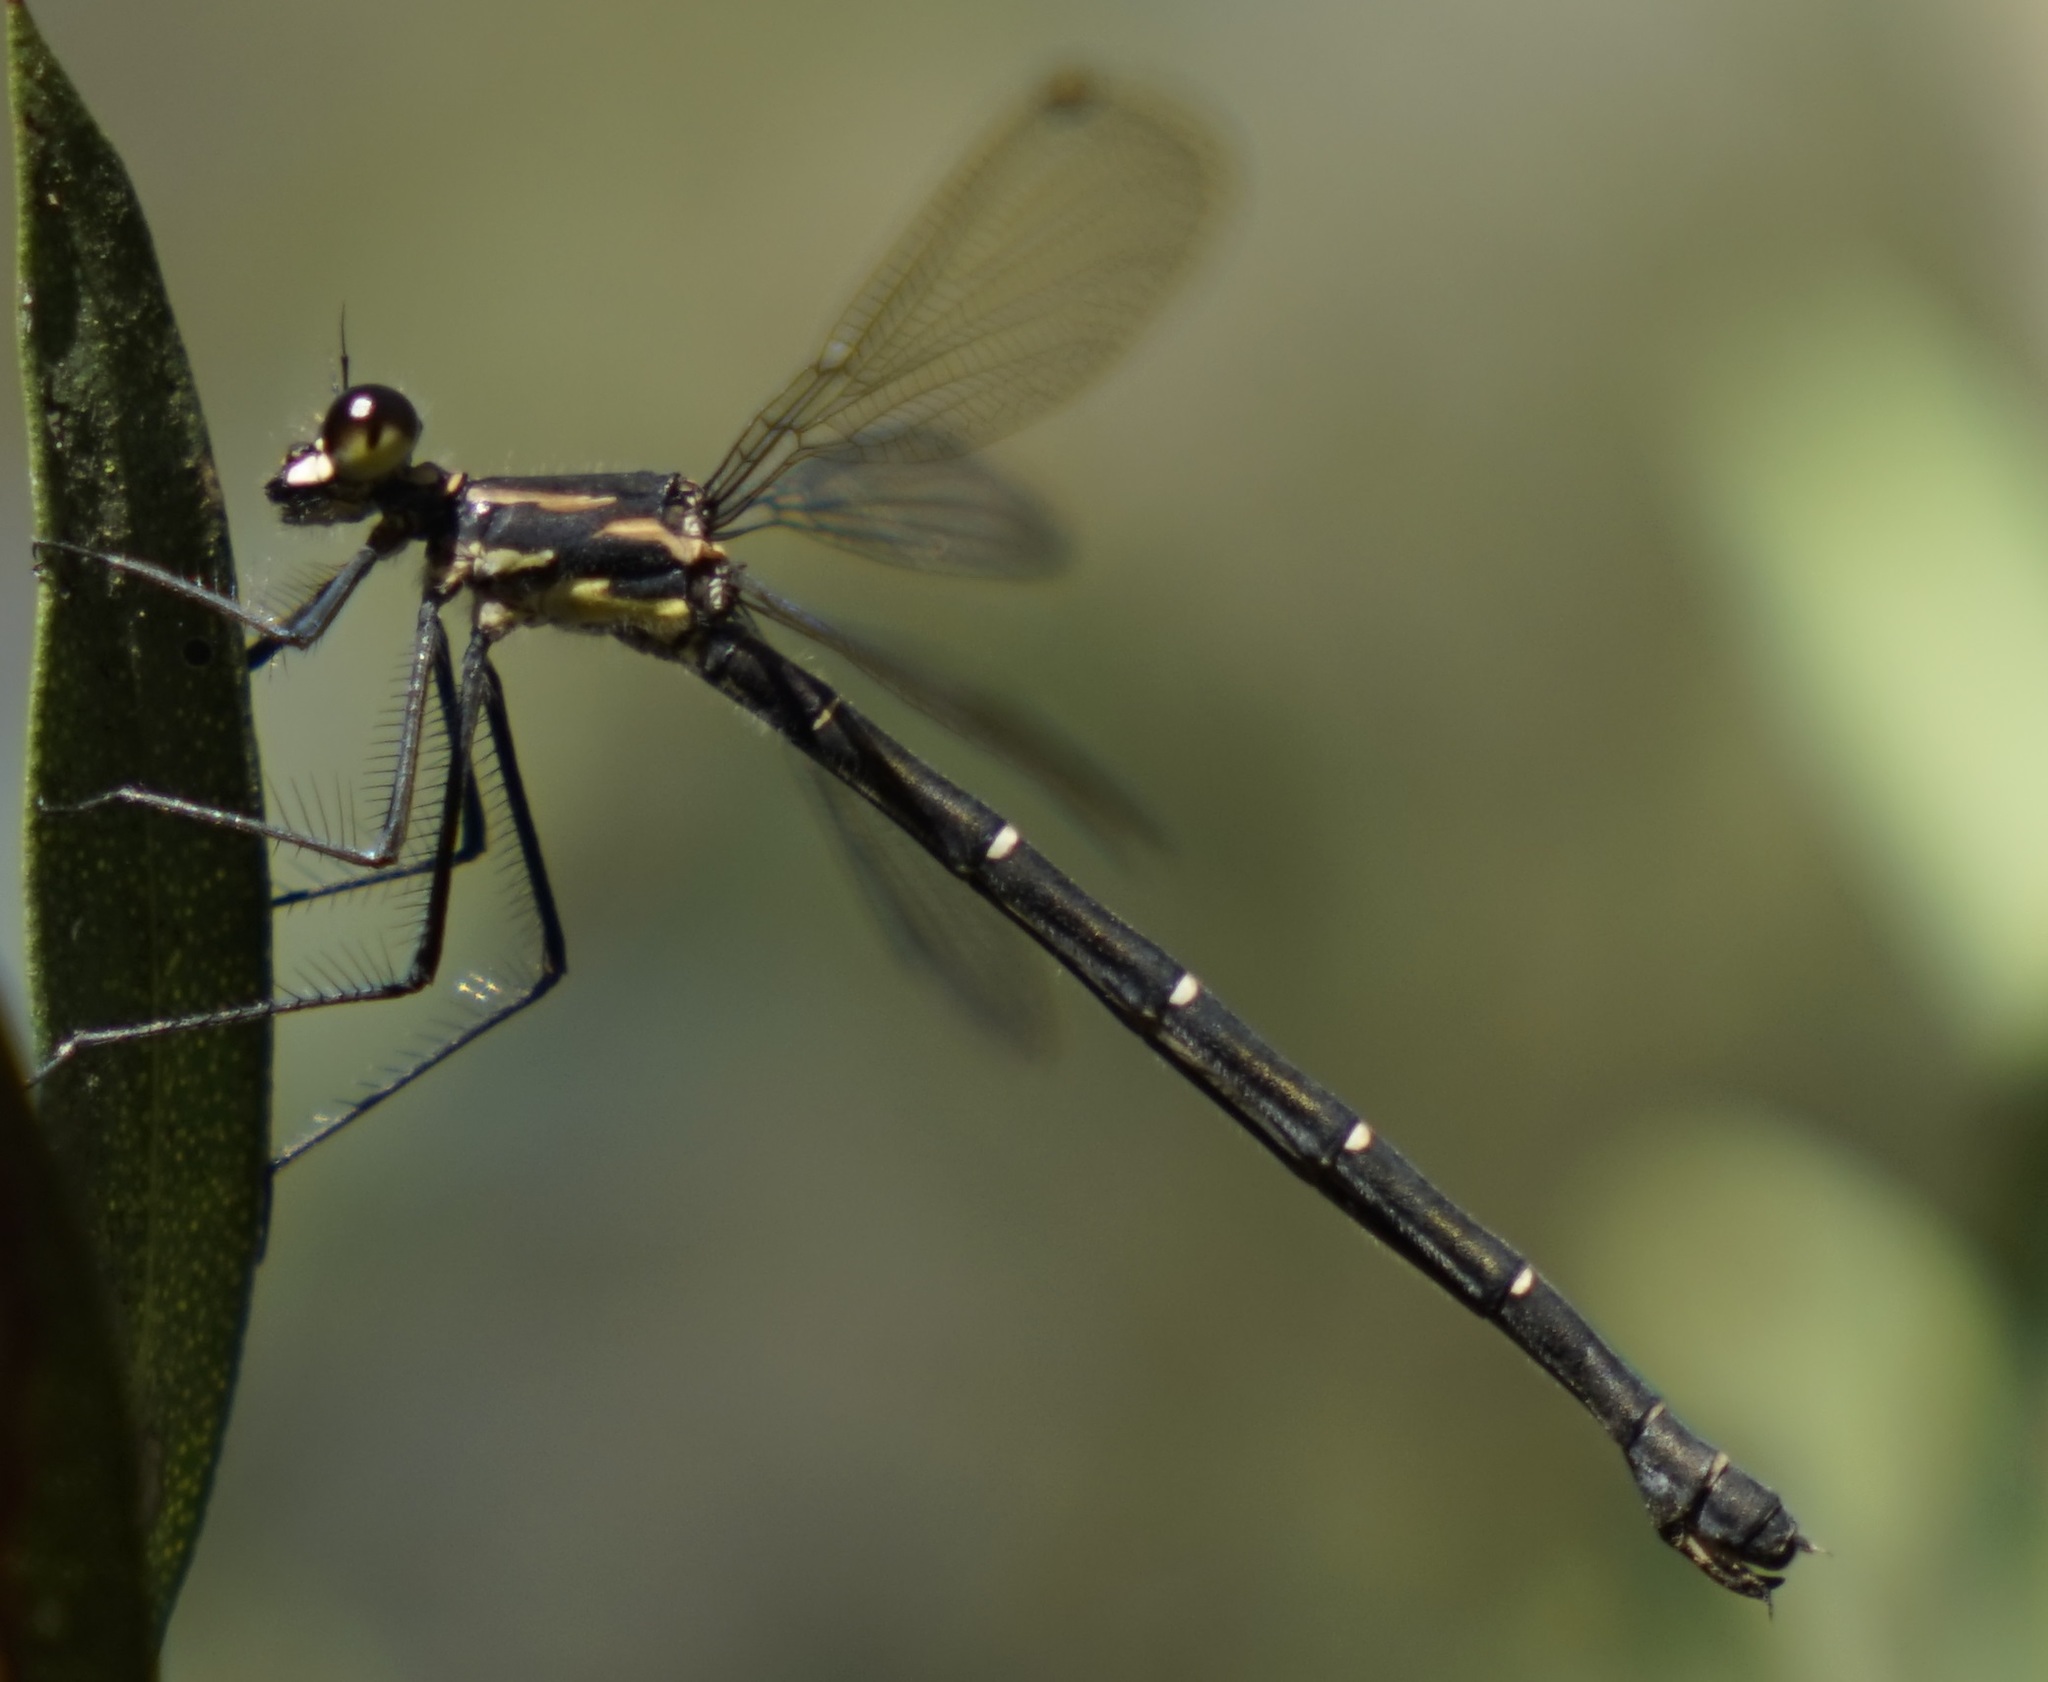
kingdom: Animalia
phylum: Arthropoda
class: Insecta
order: Odonata
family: Argiolestidae
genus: Austroargiolestes
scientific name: Austroargiolestes isabellae
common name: Sydney flatwing
